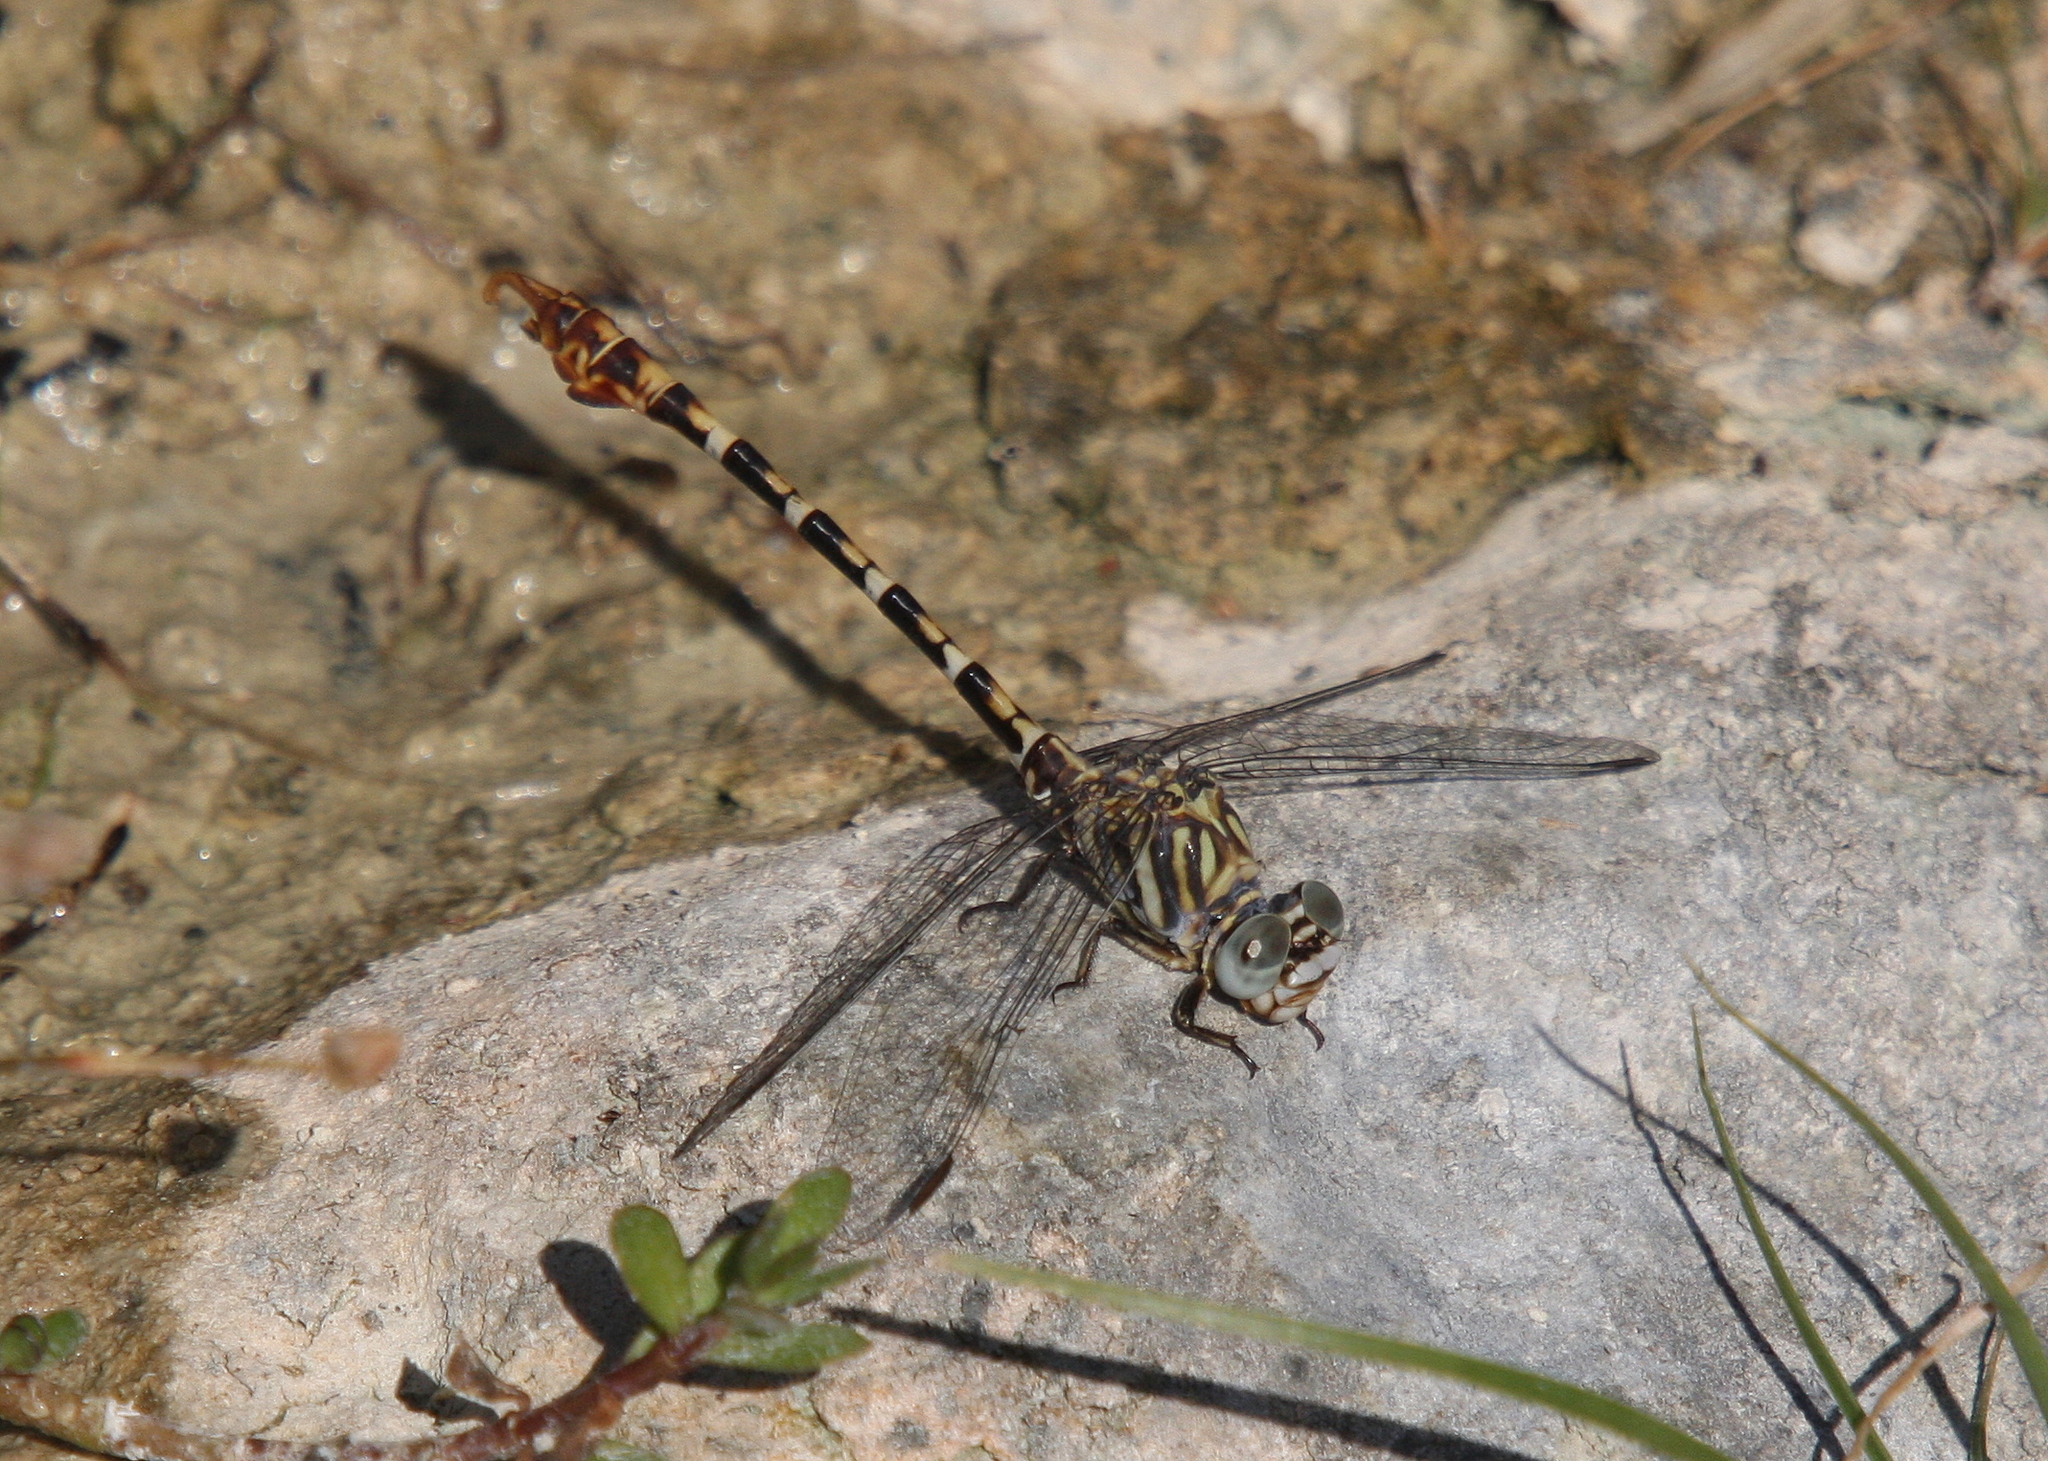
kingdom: Animalia
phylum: Arthropoda
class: Insecta
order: Odonata
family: Gomphidae
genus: Paragomphus
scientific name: Paragomphus sinaiticus
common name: Sinai hooktail
